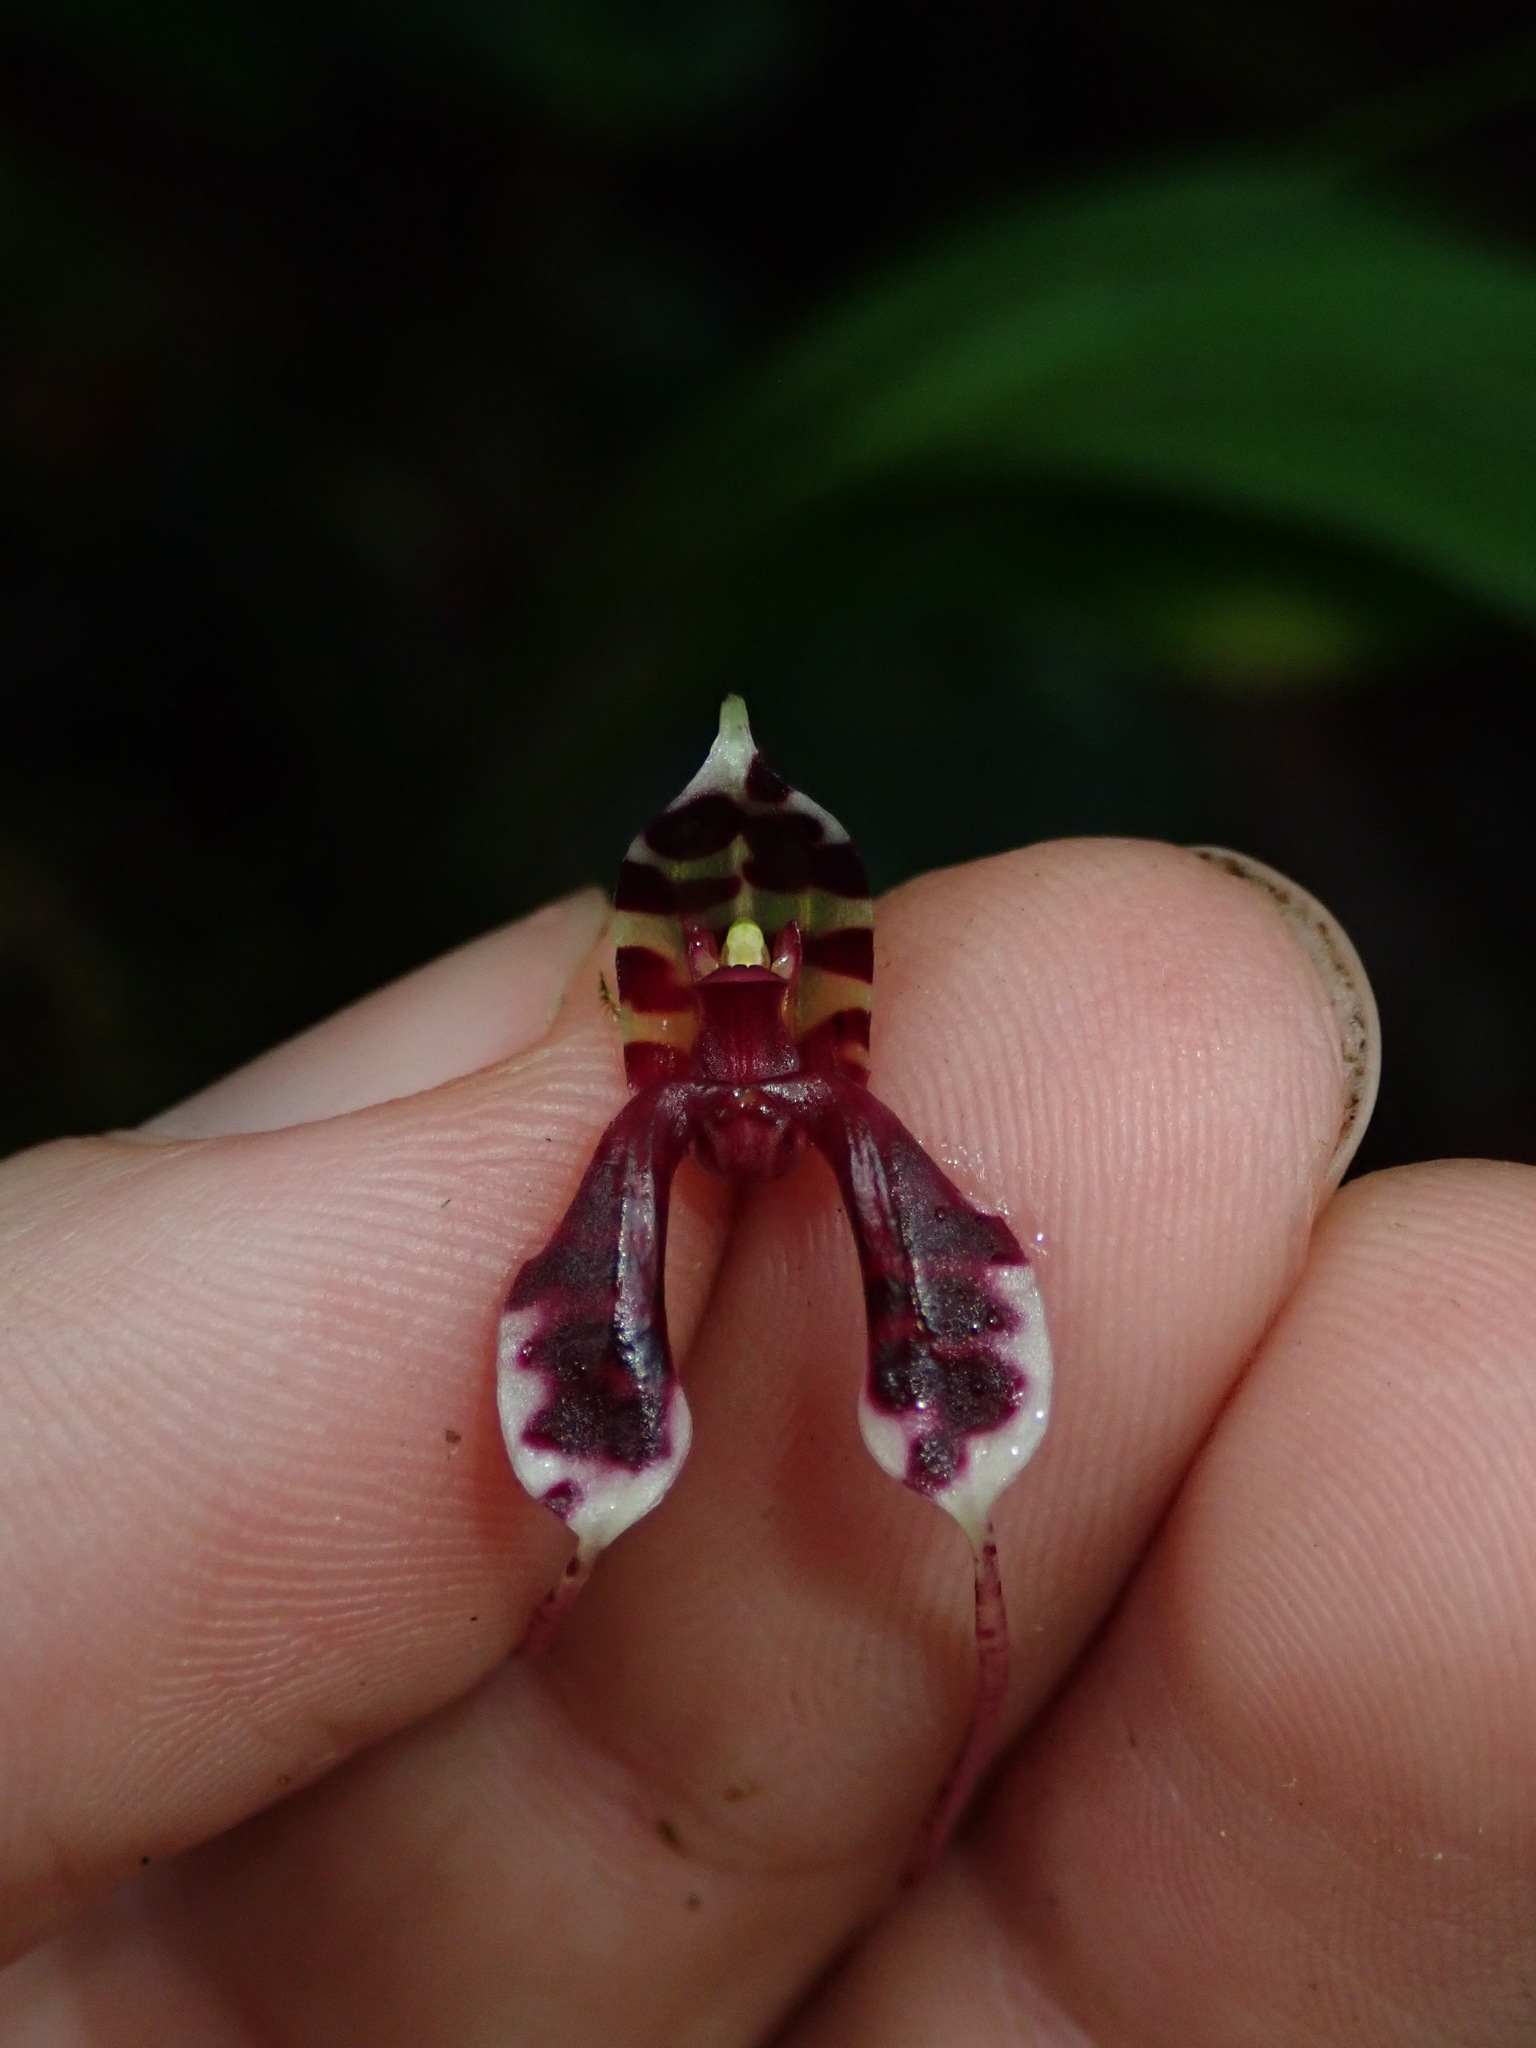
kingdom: Plantae
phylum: Tracheophyta
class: Liliopsida
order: Asparagales
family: Orchidaceae
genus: Masdevallia
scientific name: Masdevallia ximenae
